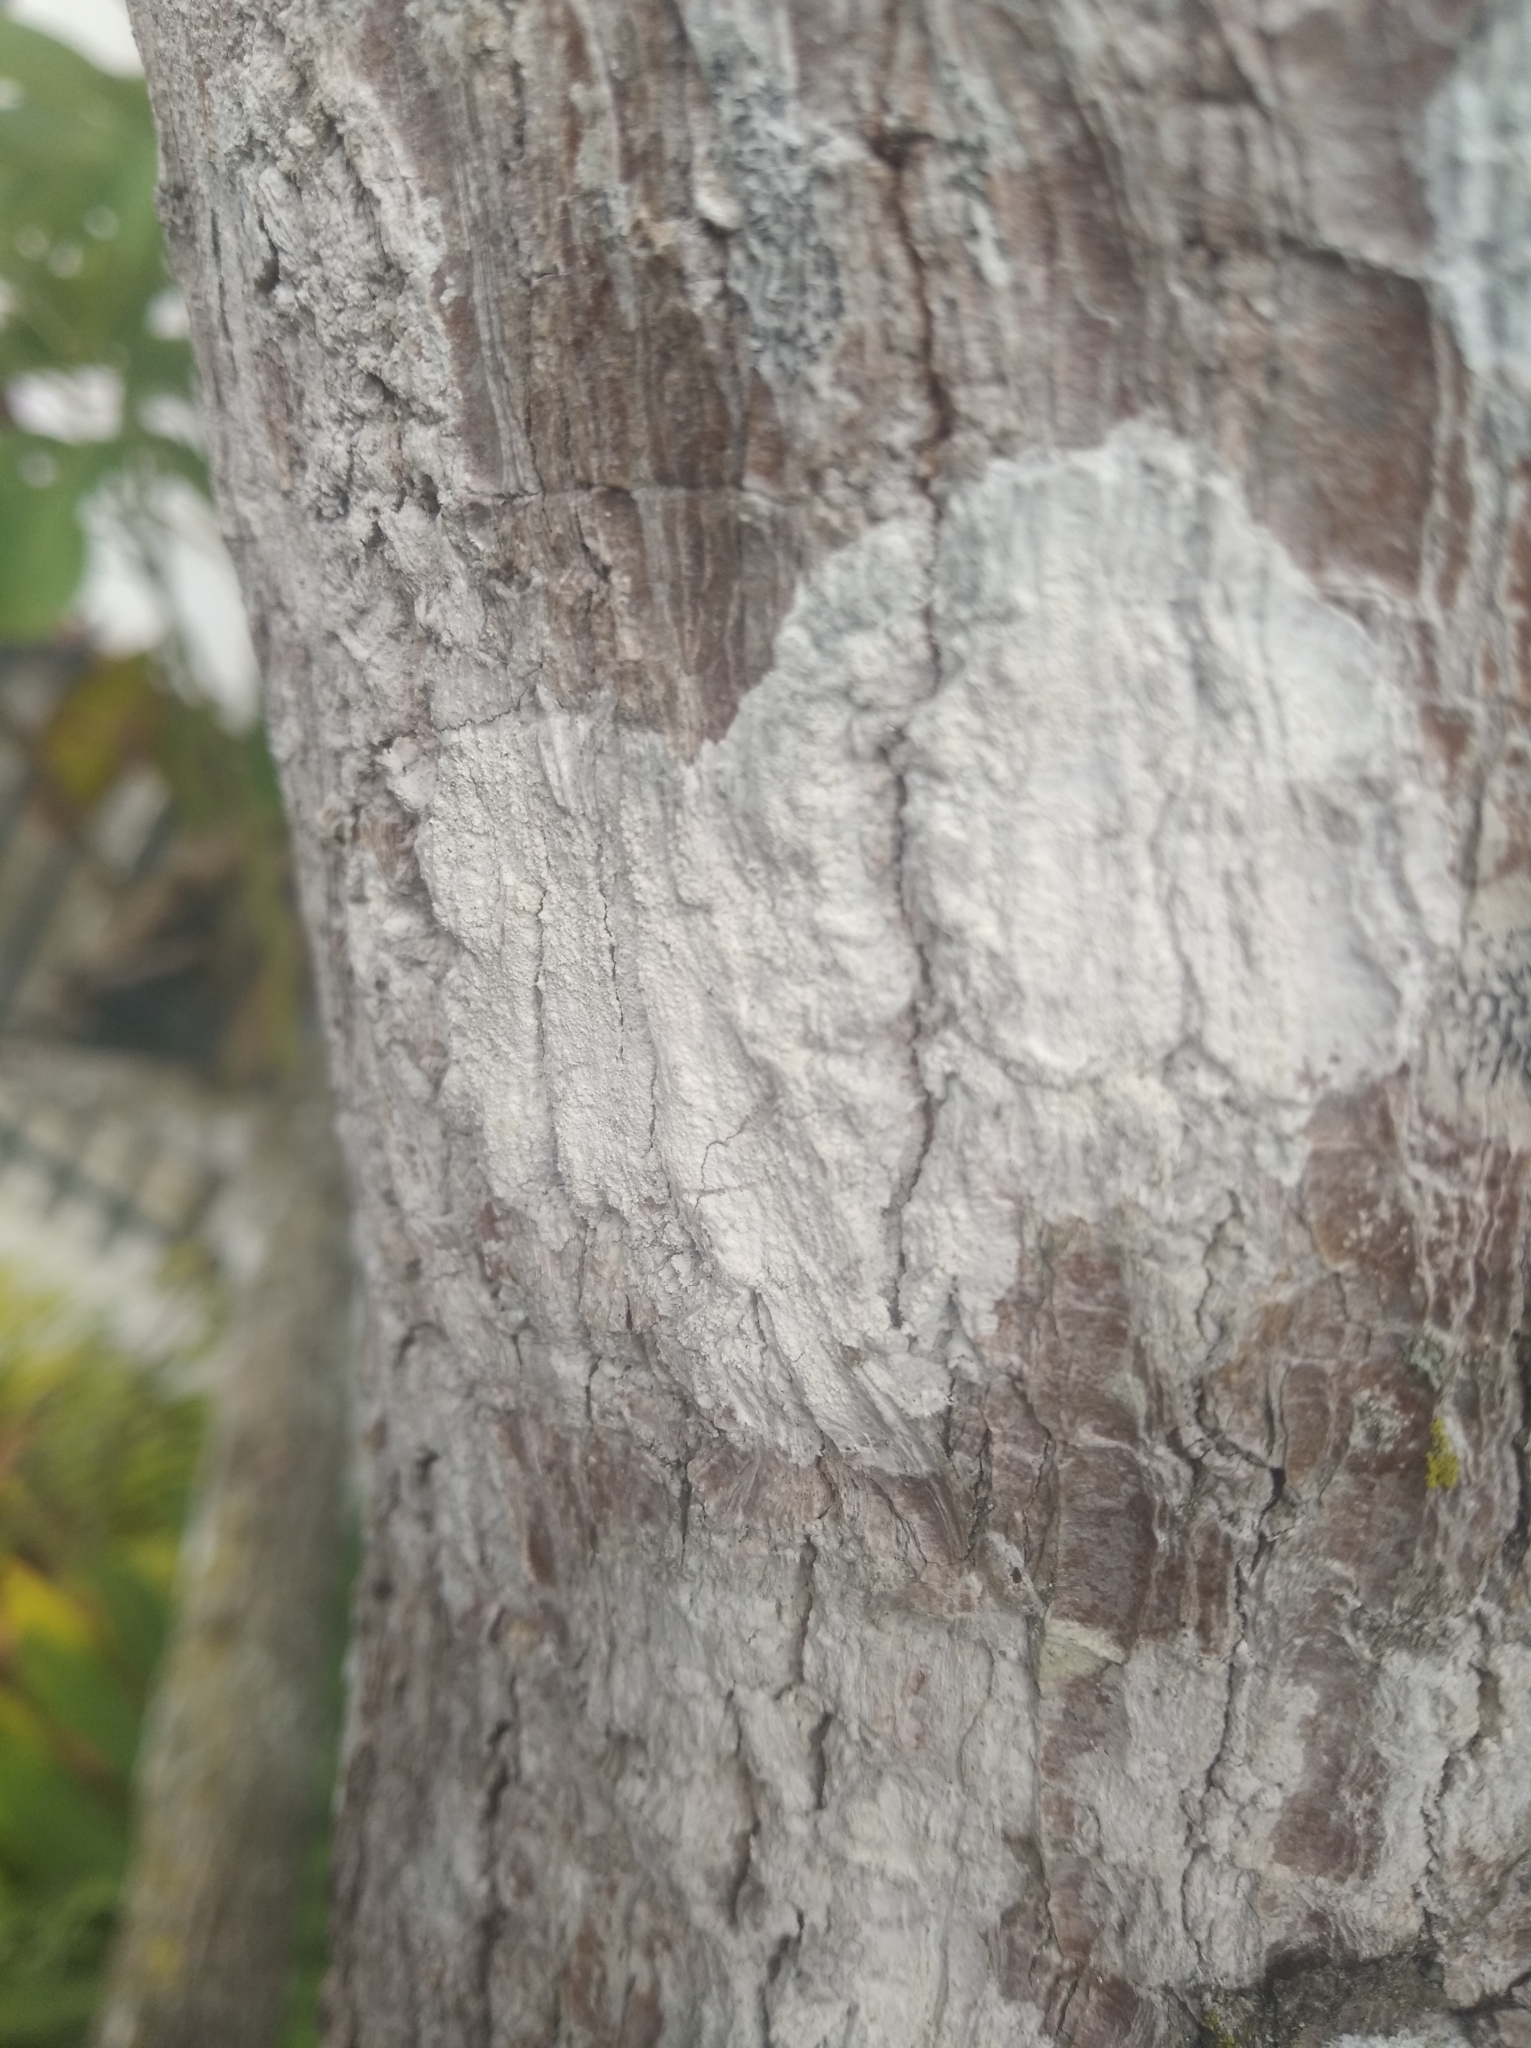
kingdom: Fungi
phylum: Ascomycota
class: Lecanoromycetes
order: Ostropales
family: Phlyctidaceae
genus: Phlyctis
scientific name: Phlyctis argena
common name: Whitewash lichen
